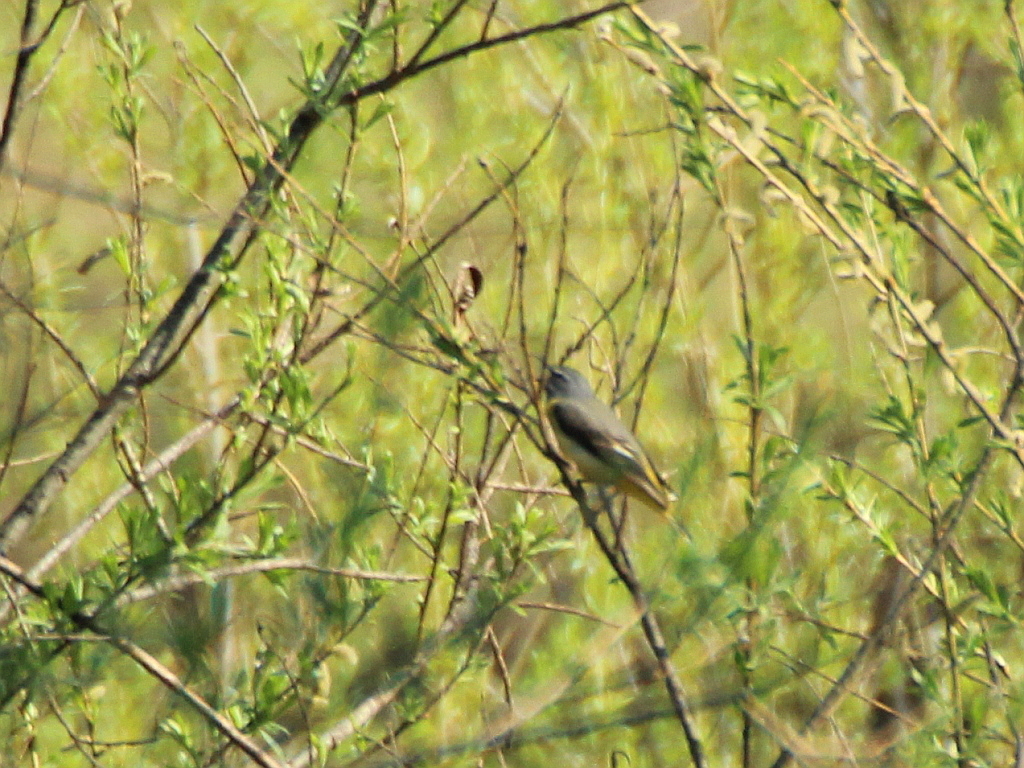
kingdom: Animalia
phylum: Chordata
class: Aves
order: Passeriformes
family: Motacillidae
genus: Motacilla
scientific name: Motacilla cinerea
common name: Grey wagtail
